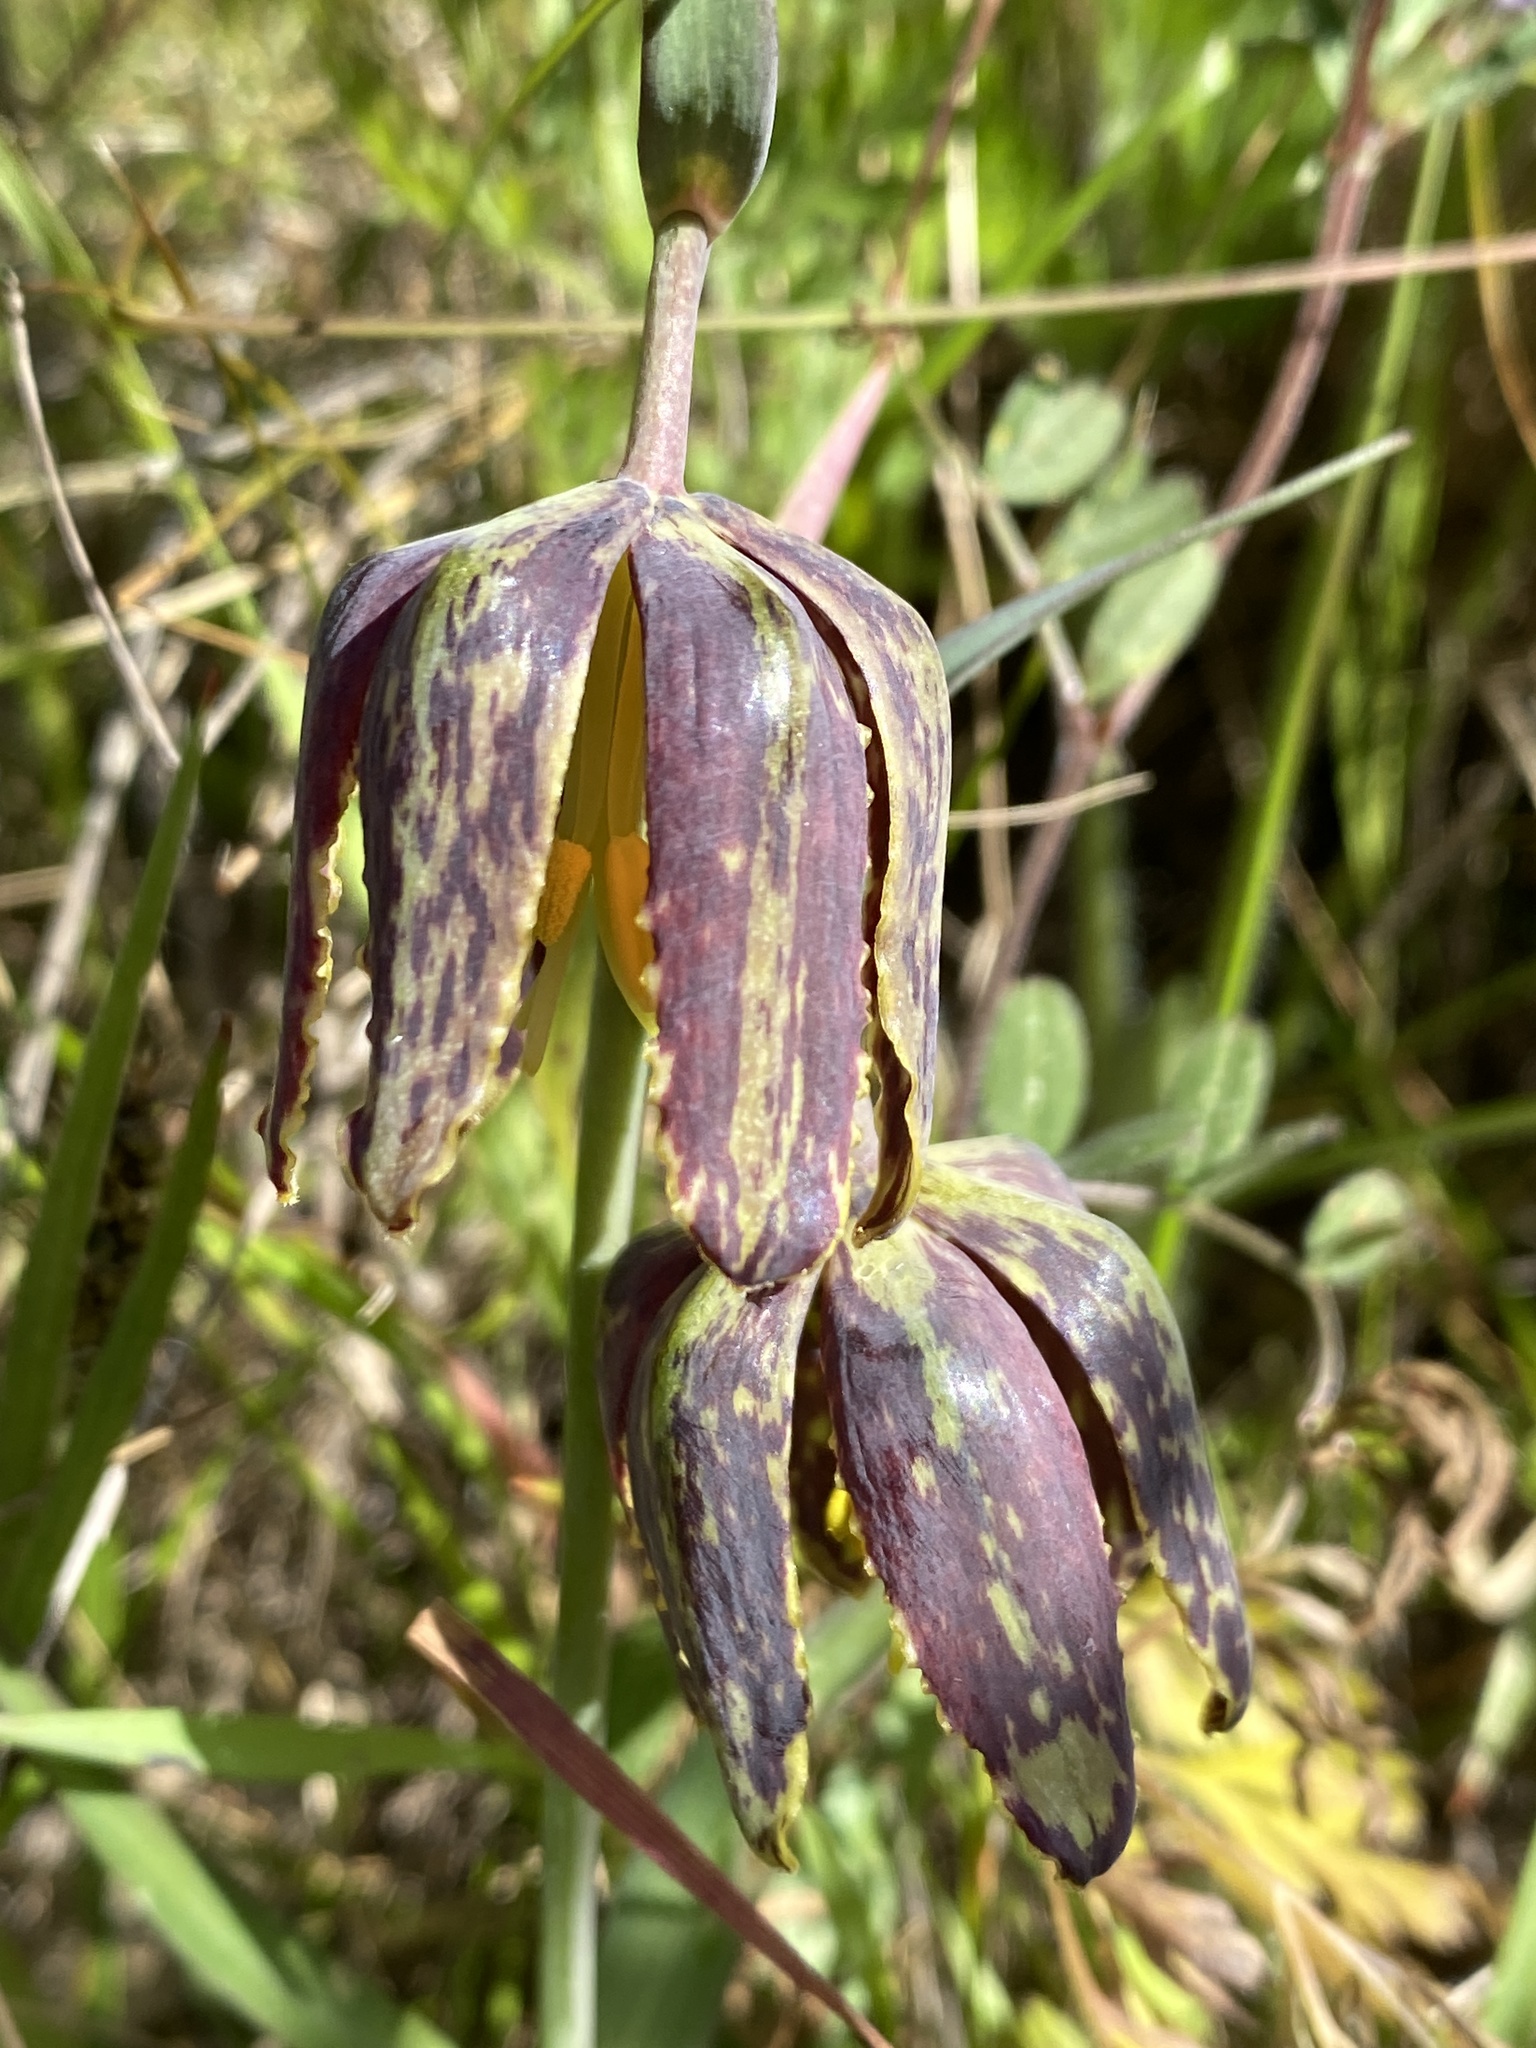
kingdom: Plantae
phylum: Tracheophyta
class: Liliopsida
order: Liliales
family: Liliaceae
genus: Fritillaria
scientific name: Fritillaria affinis
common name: Ojai fritillary
